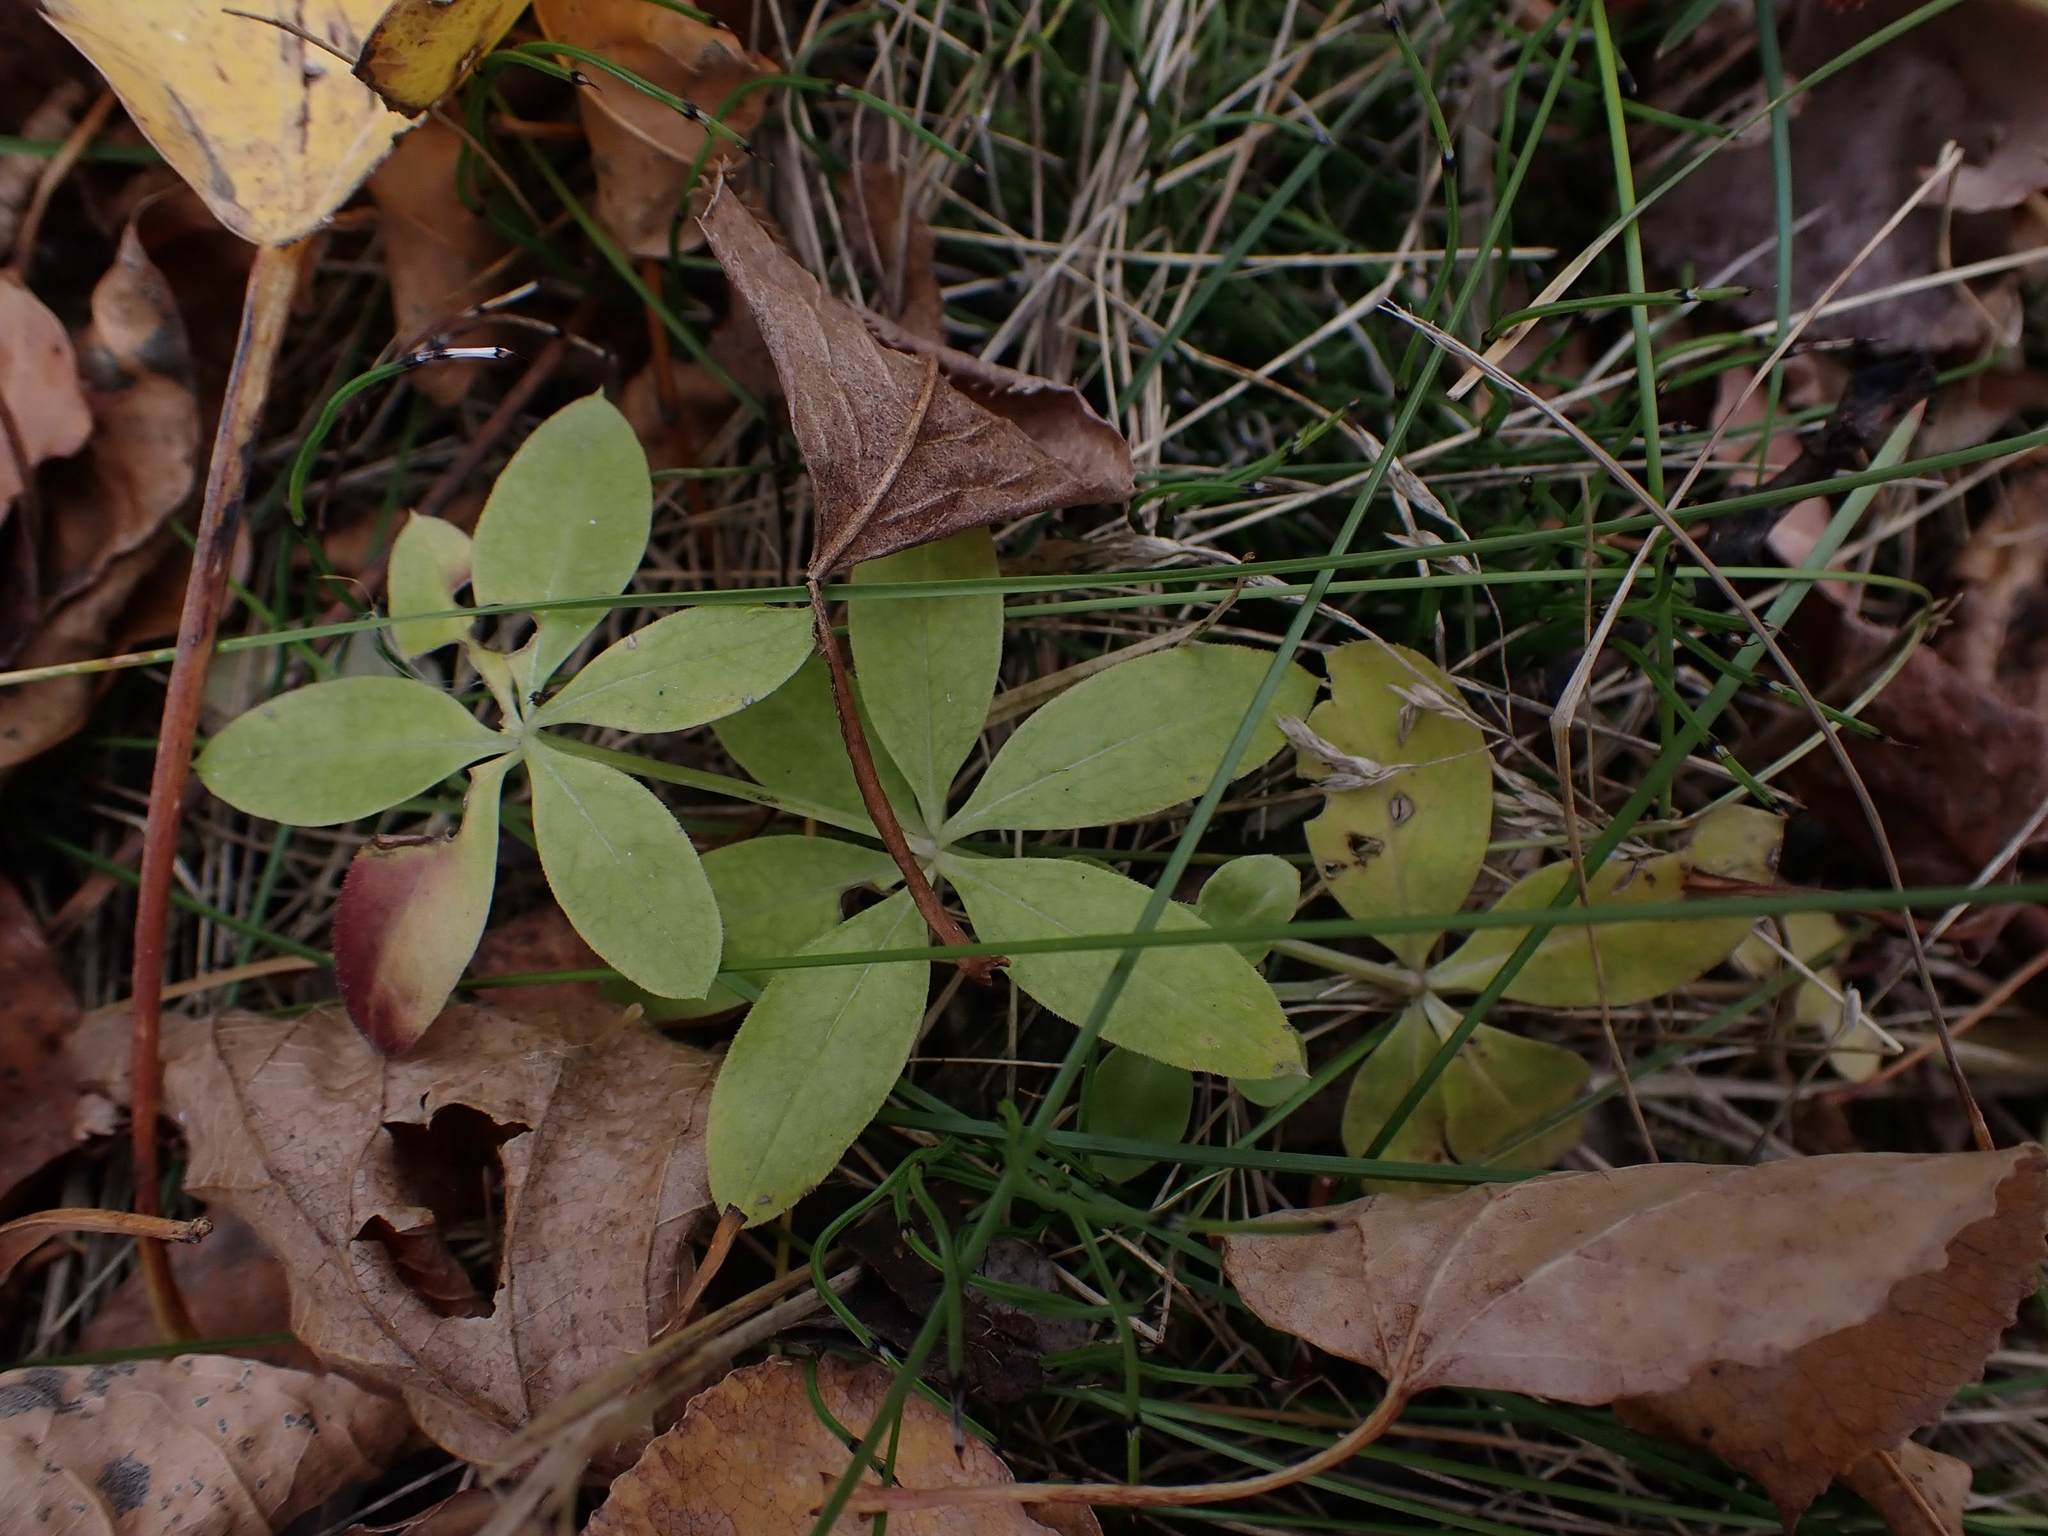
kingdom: Plantae
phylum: Tracheophyta
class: Magnoliopsida
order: Gentianales
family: Rubiaceae
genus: Galium
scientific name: Galium triflorum
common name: Fragrant bedstraw
